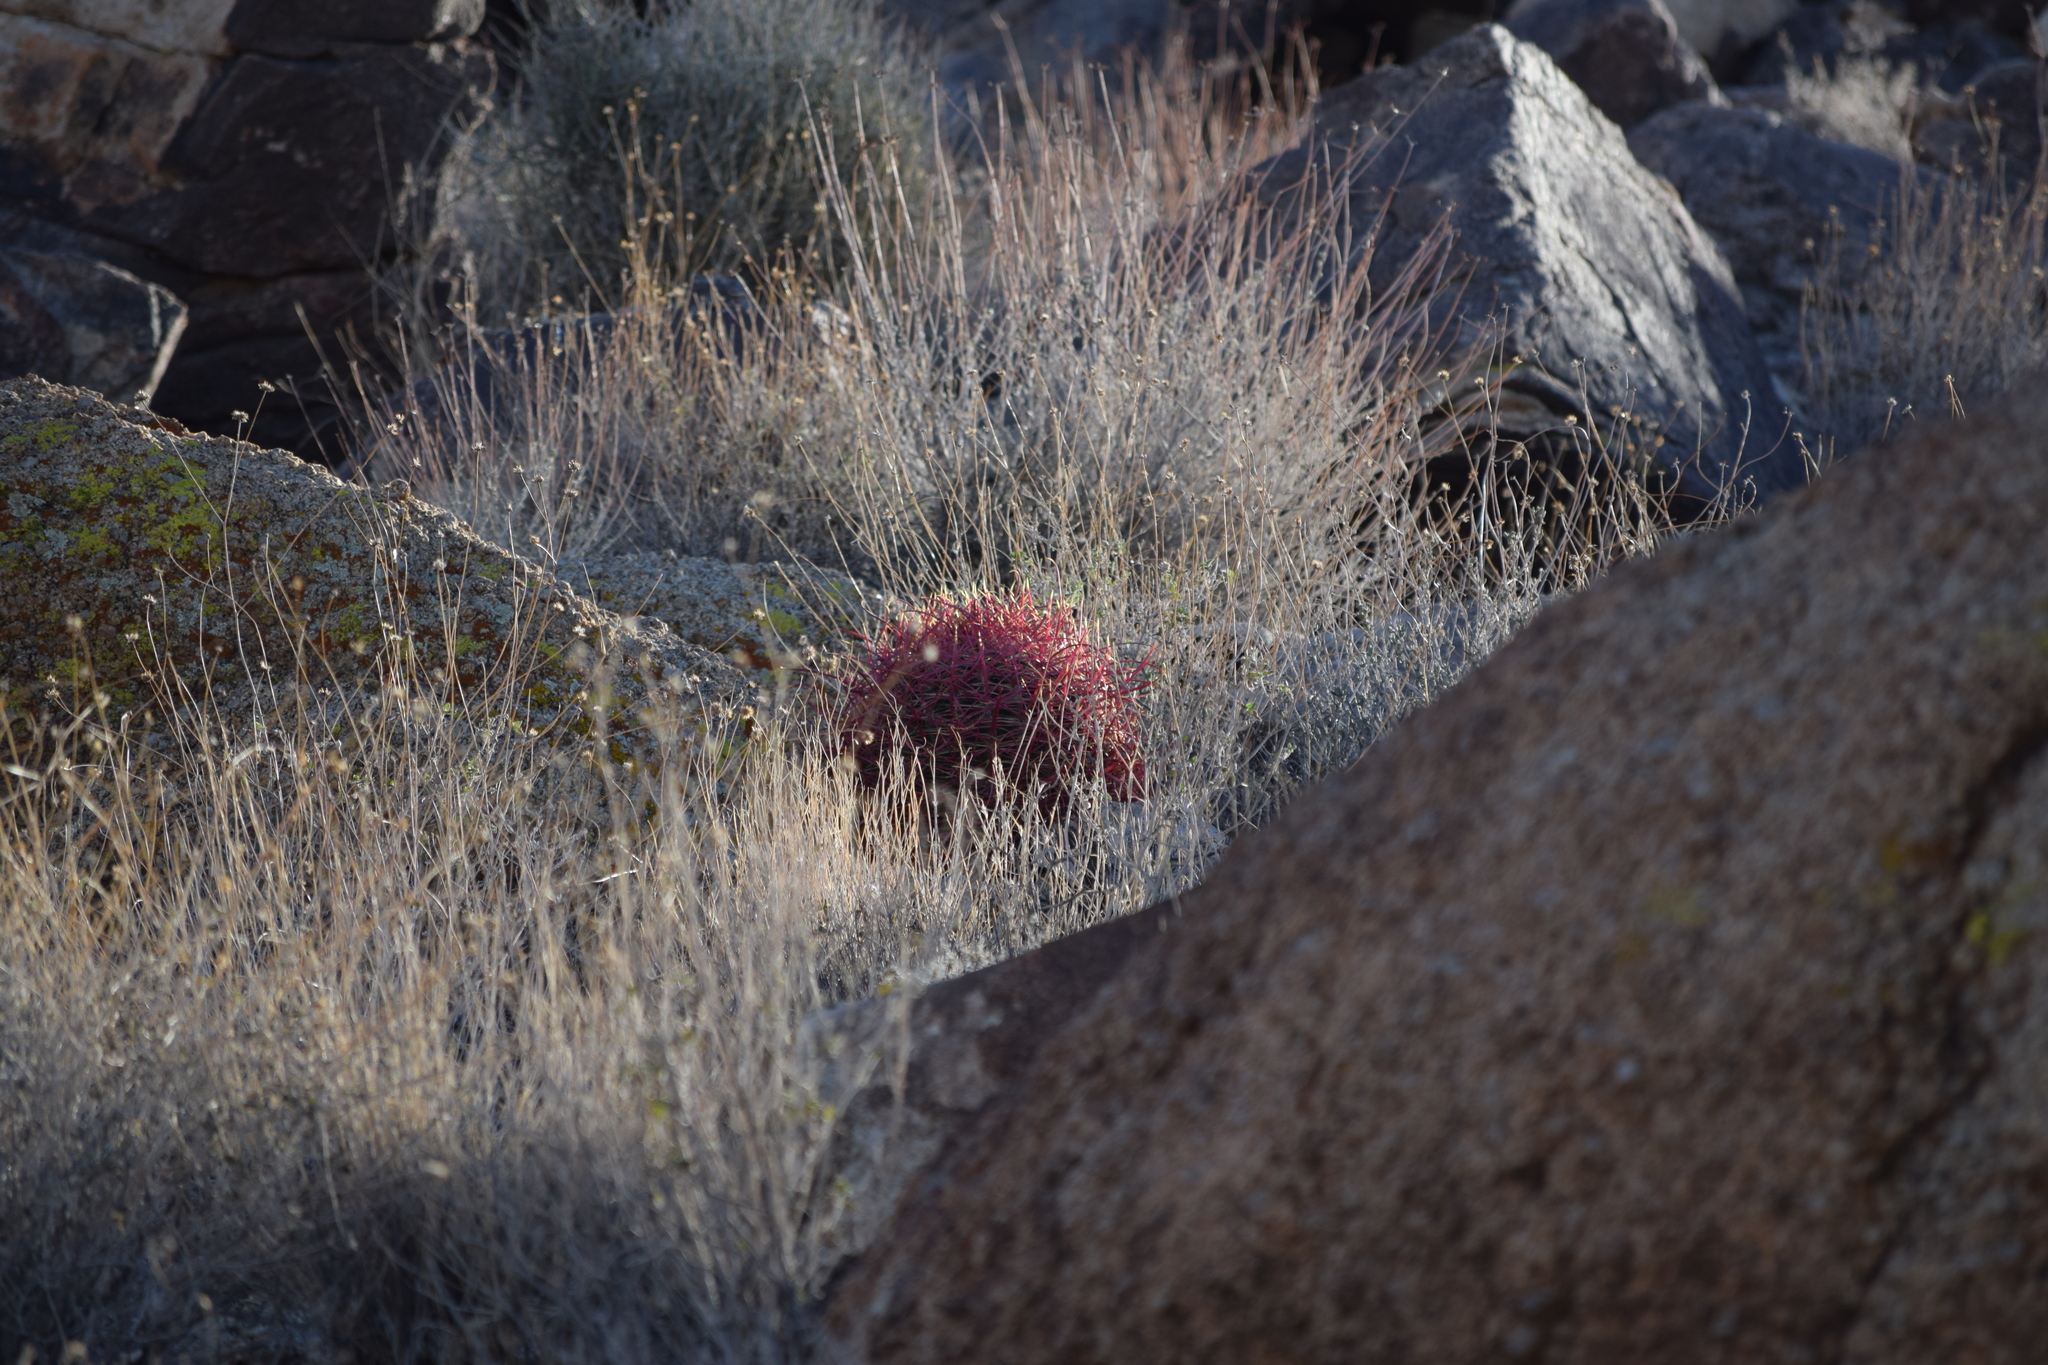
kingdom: Plantae
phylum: Tracheophyta
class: Magnoliopsida
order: Caryophyllales
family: Cactaceae
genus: Ferocactus
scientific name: Ferocactus cylindraceus
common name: California barrel cactus
